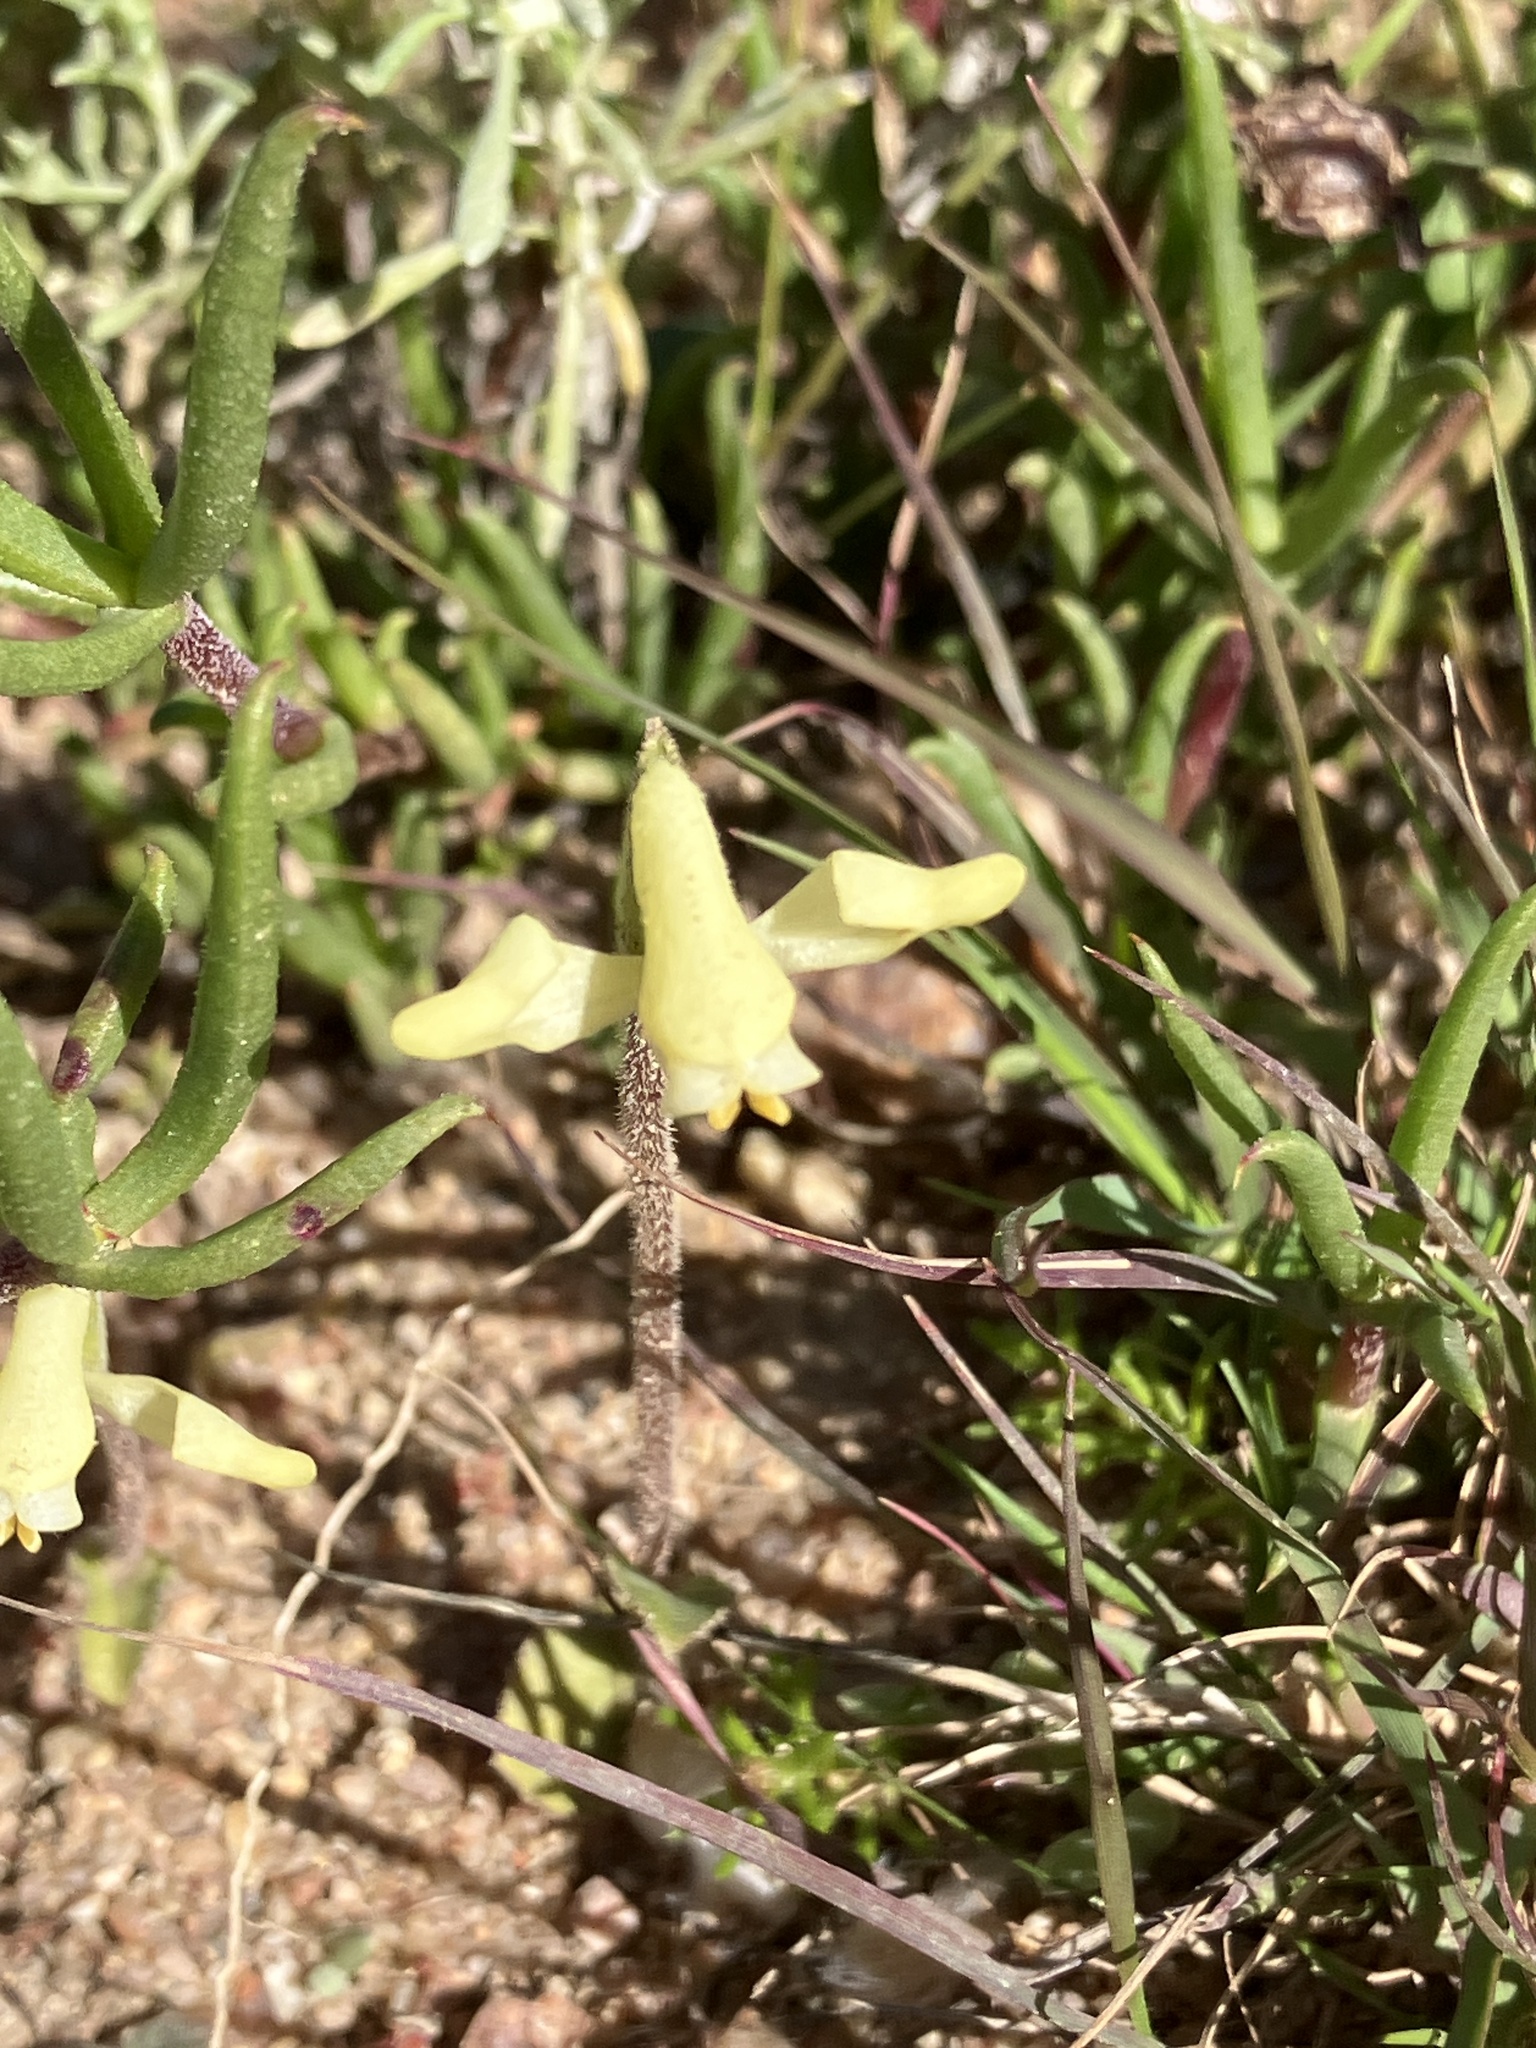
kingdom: Plantae
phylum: Tracheophyta
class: Liliopsida
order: Asparagales
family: Orchidaceae
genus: Disperis
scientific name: Disperis villosa
